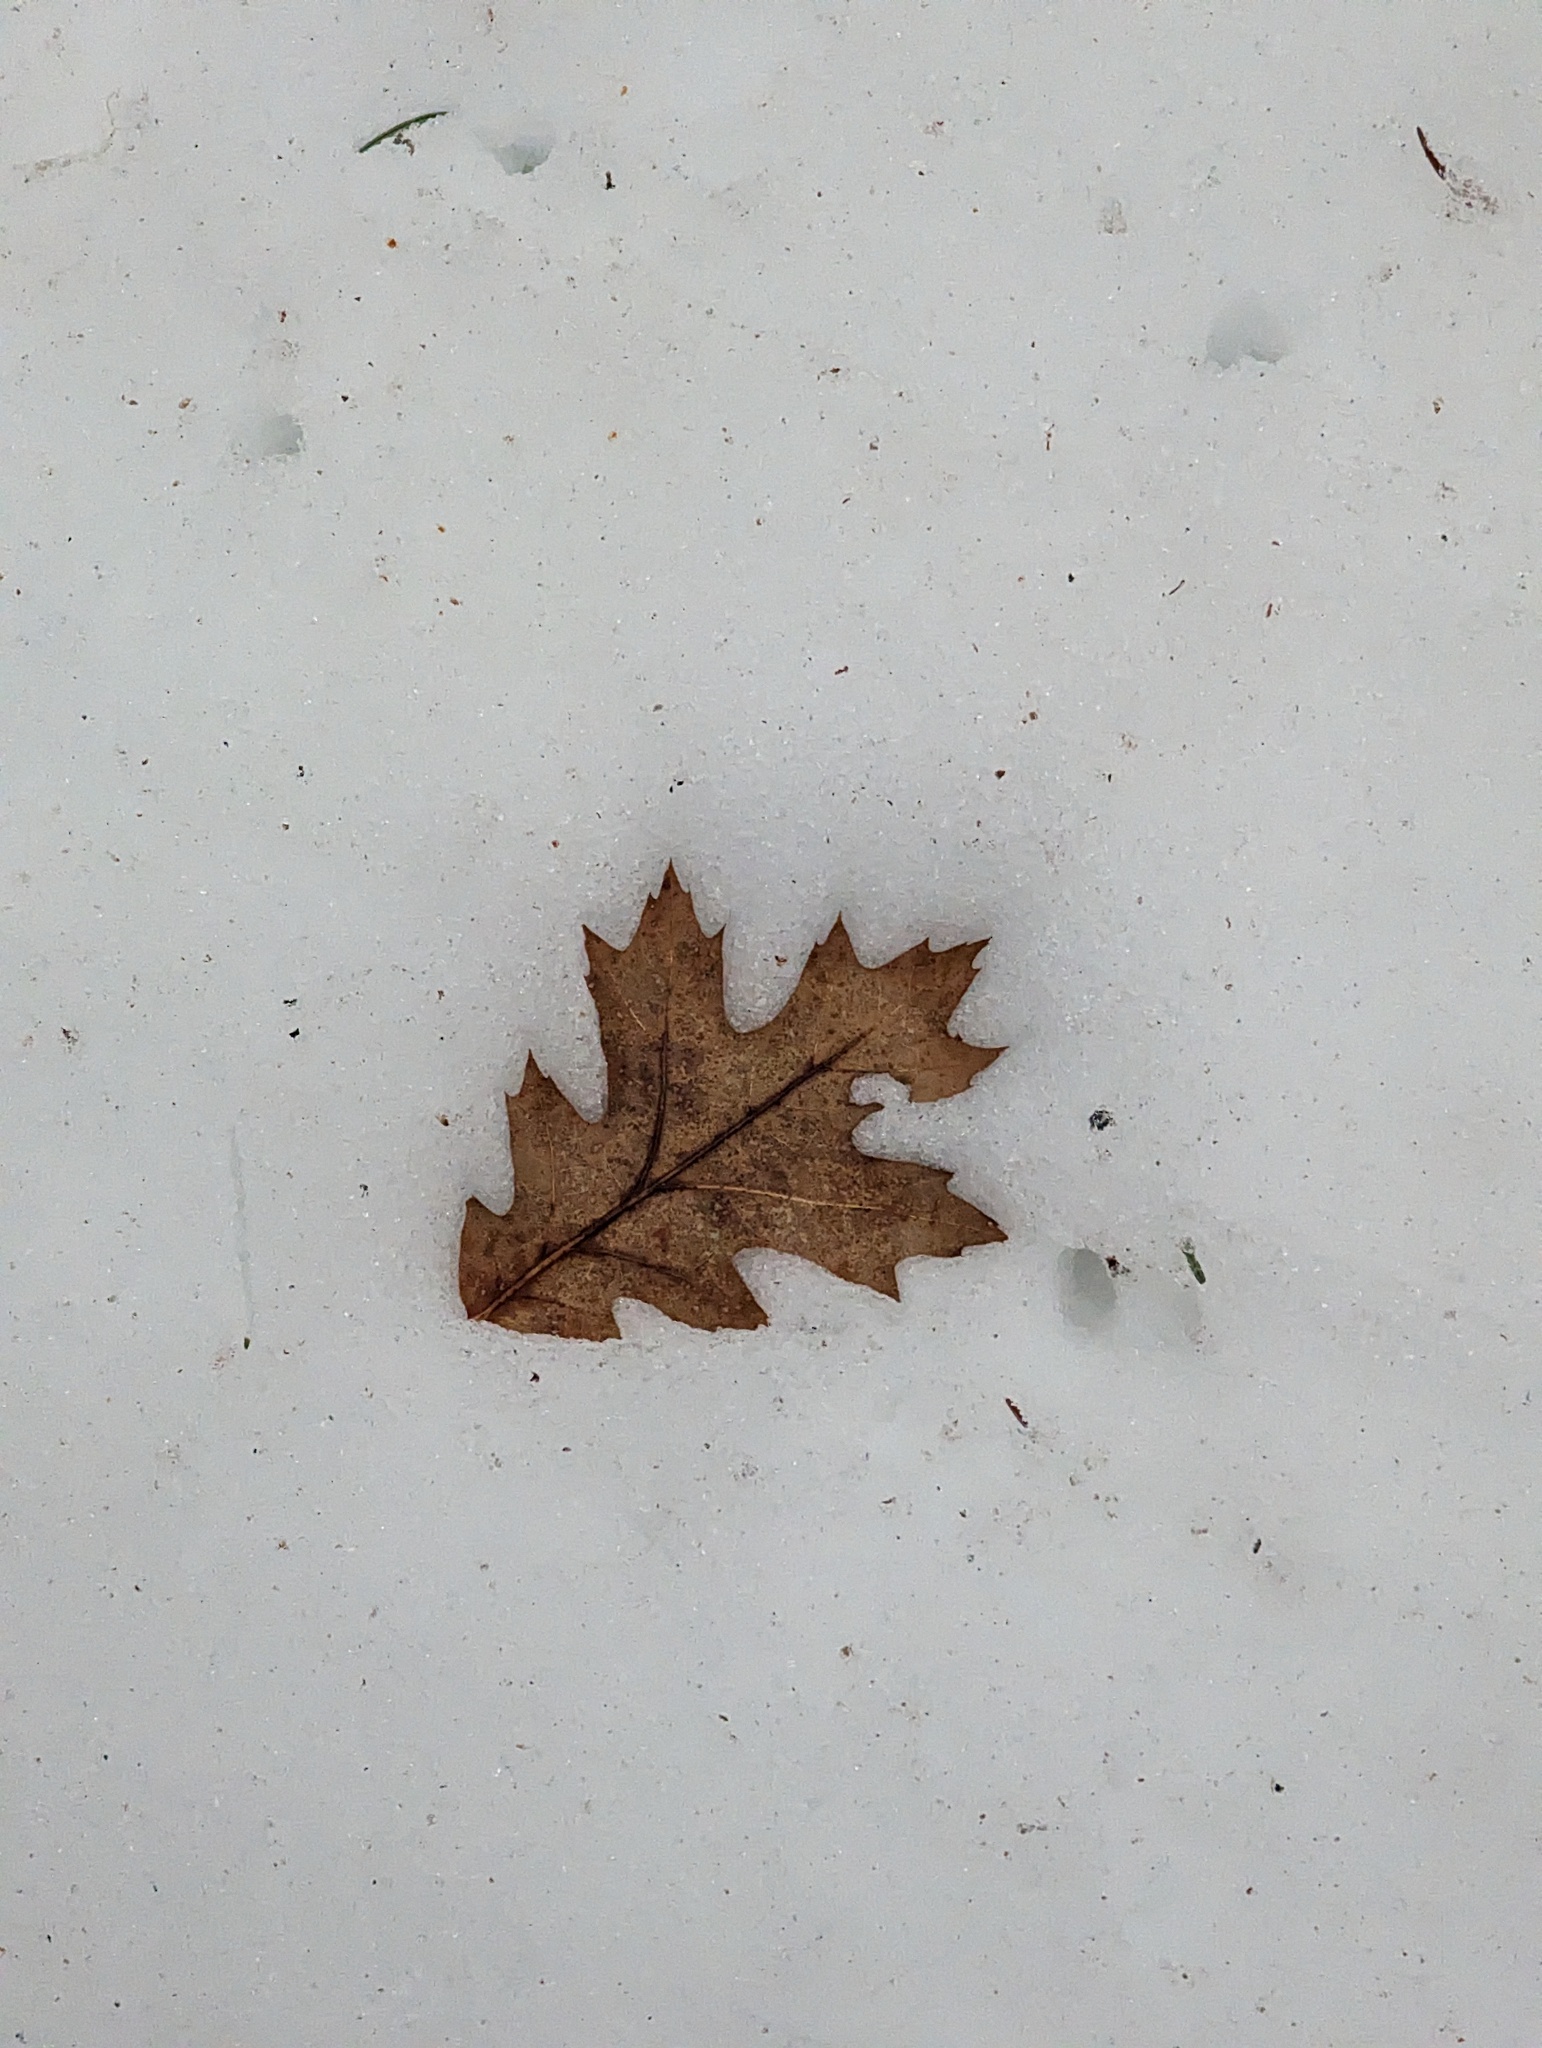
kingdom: Plantae
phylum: Tracheophyta
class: Magnoliopsida
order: Fagales
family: Fagaceae
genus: Quercus
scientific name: Quercus rubra
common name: Red oak
